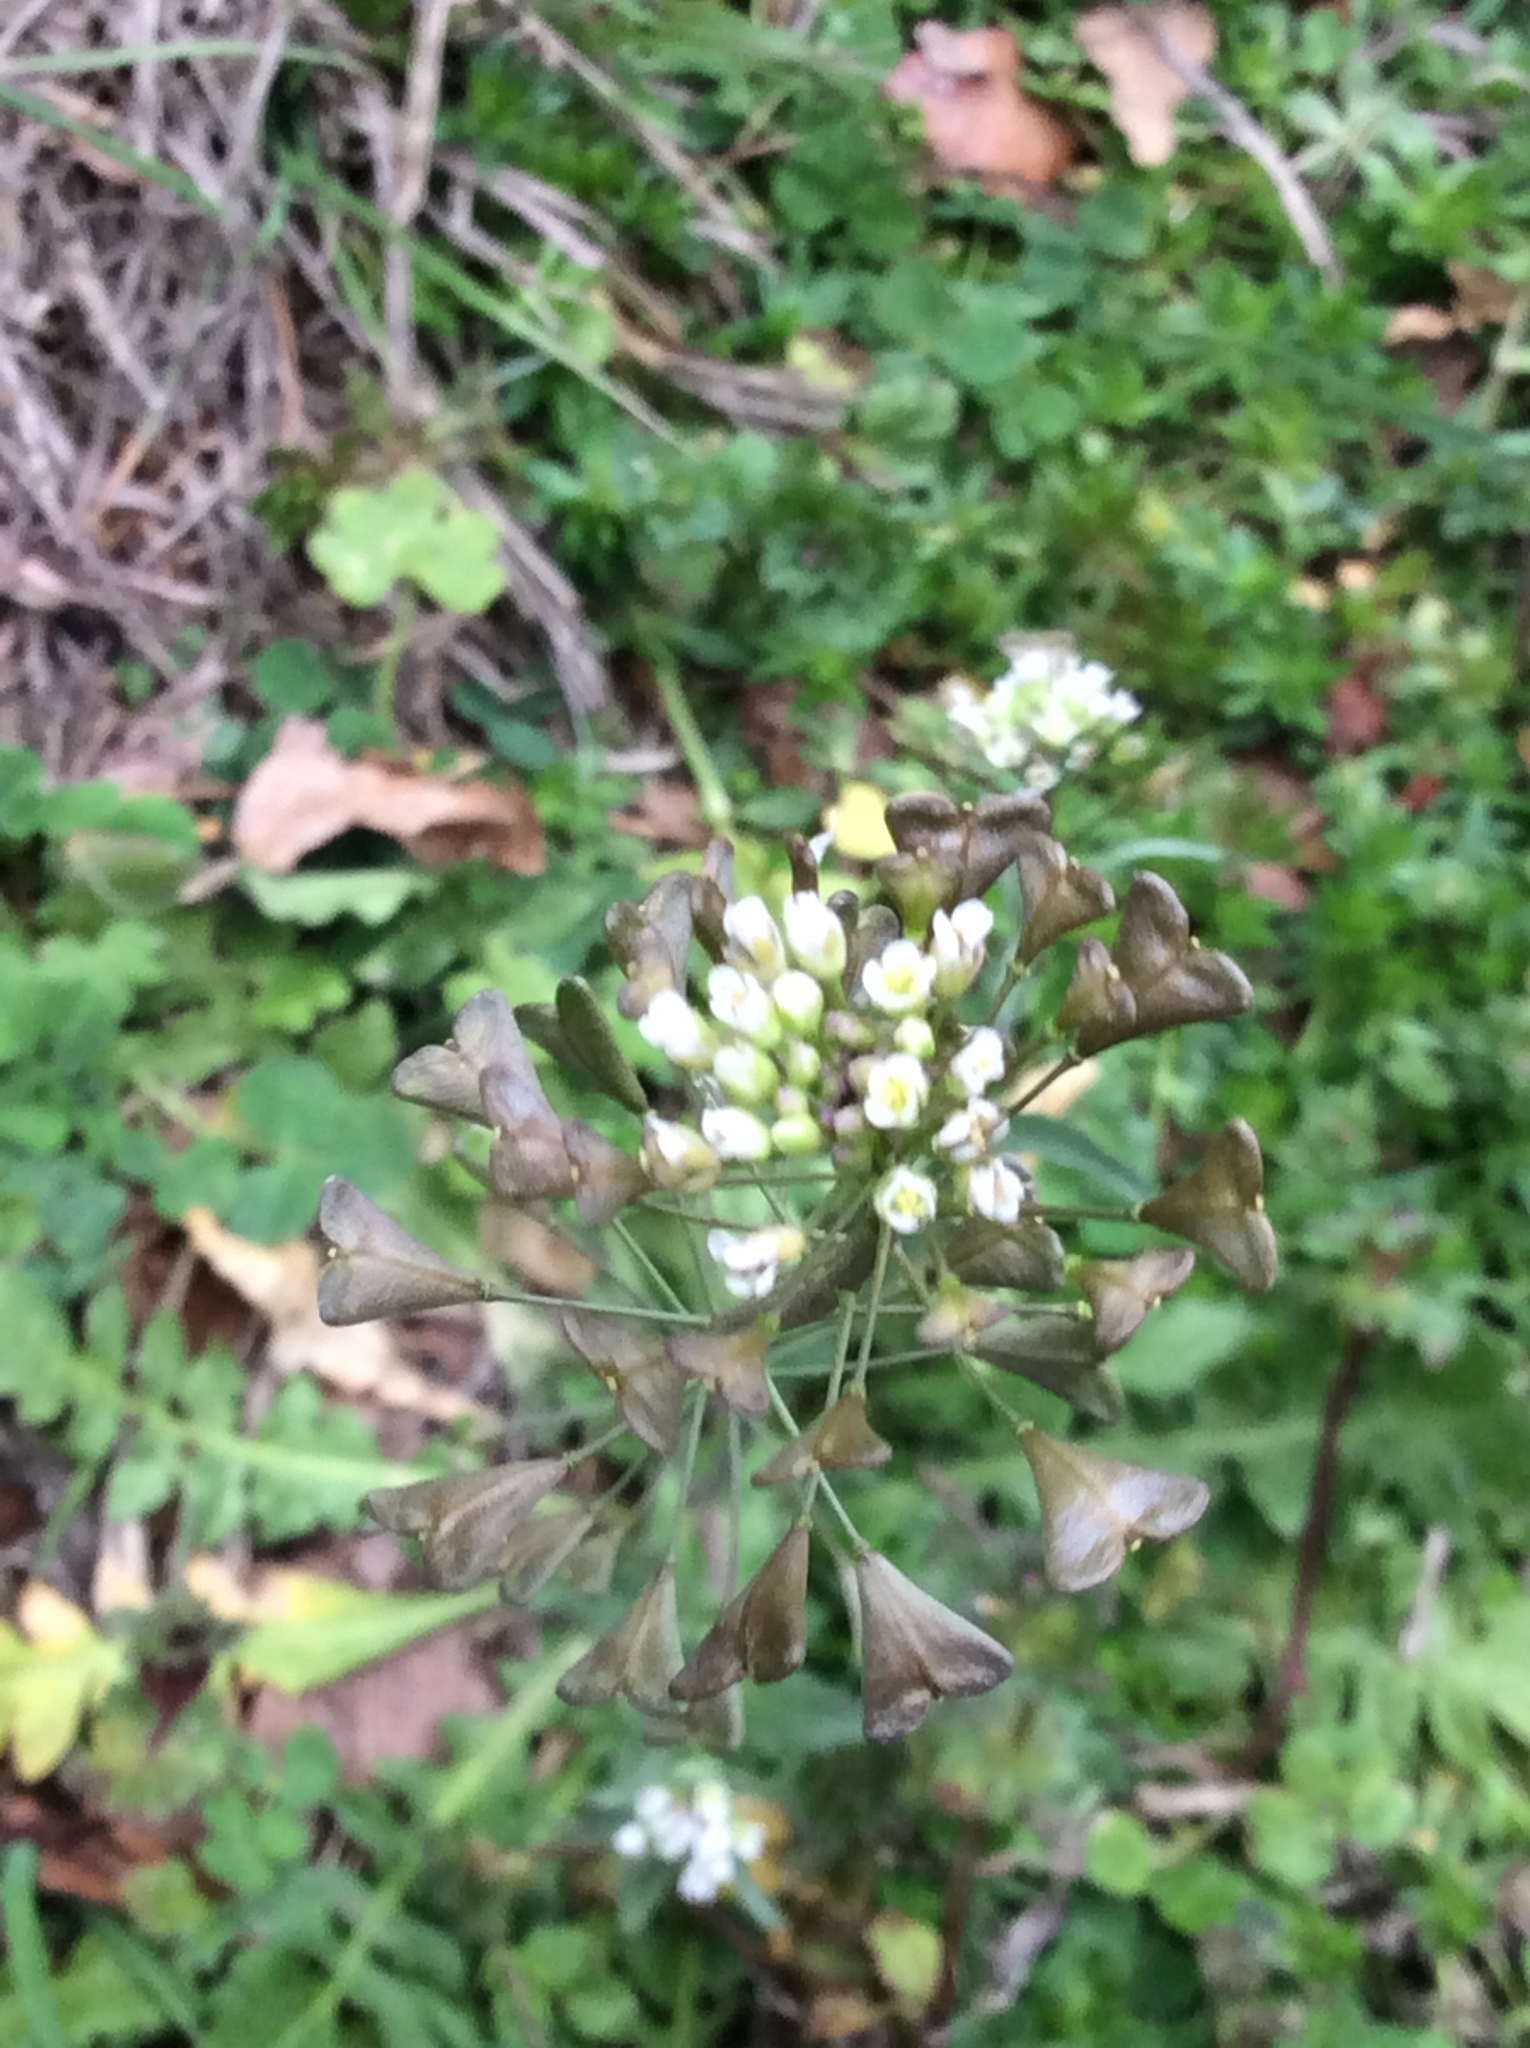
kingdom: Plantae
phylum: Tracheophyta
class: Magnoliopsida
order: Brassicales
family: Brassicaceae
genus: Capsella
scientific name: Capsella bursa-pastoris
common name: Shepherd's purse
